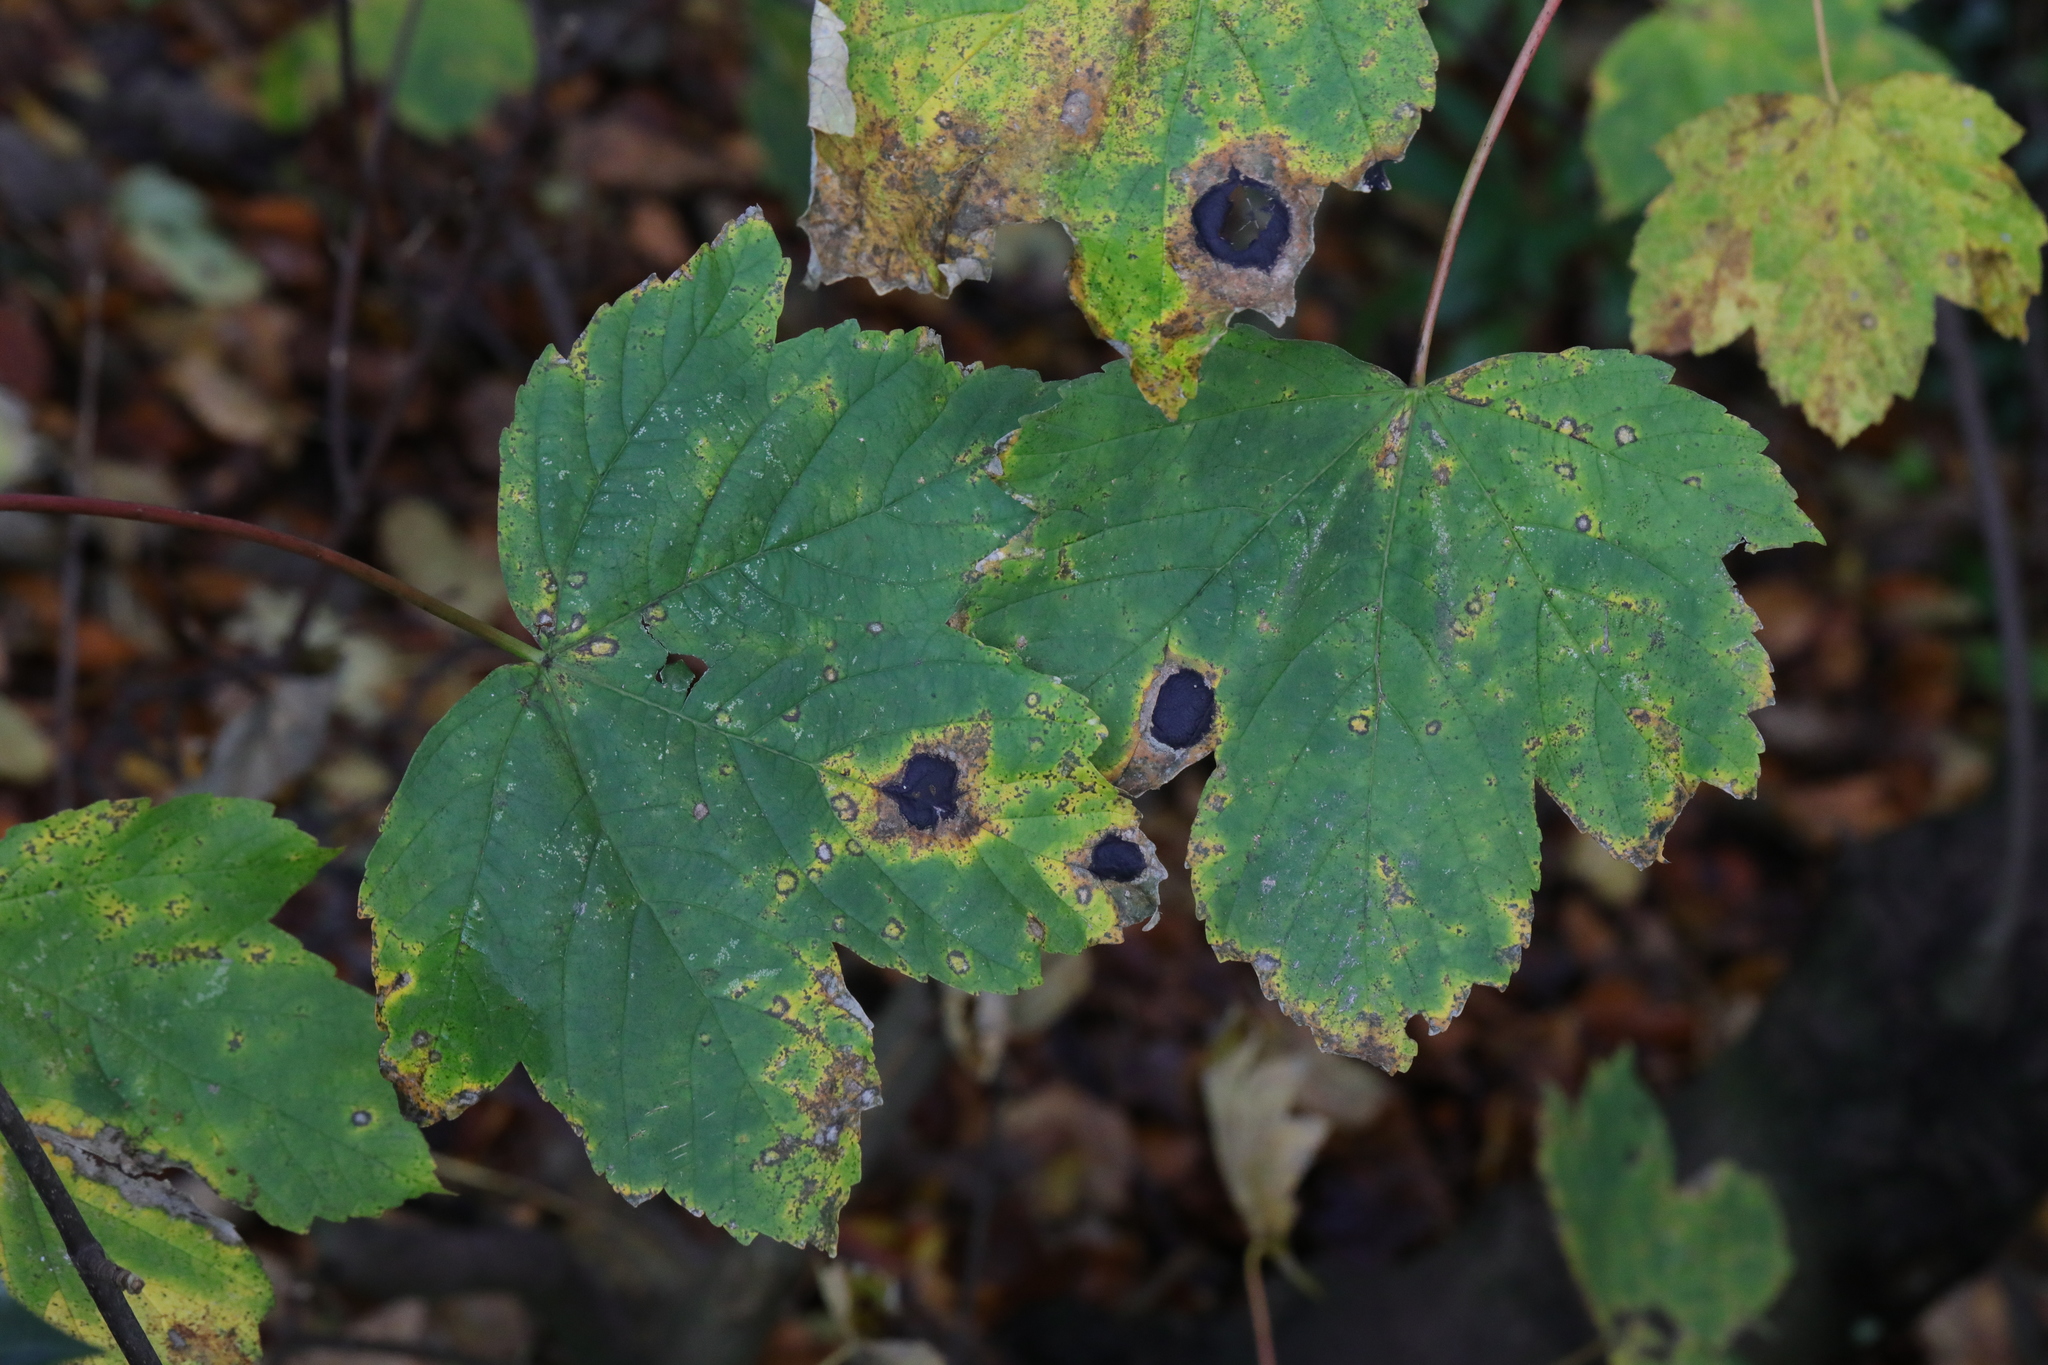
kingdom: Plantae
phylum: Tracheophyta
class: Magnoliopsida
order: Sapindales
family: Sapindaceae
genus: Acer
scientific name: Acer pseudoplatanus
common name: Sycamore
